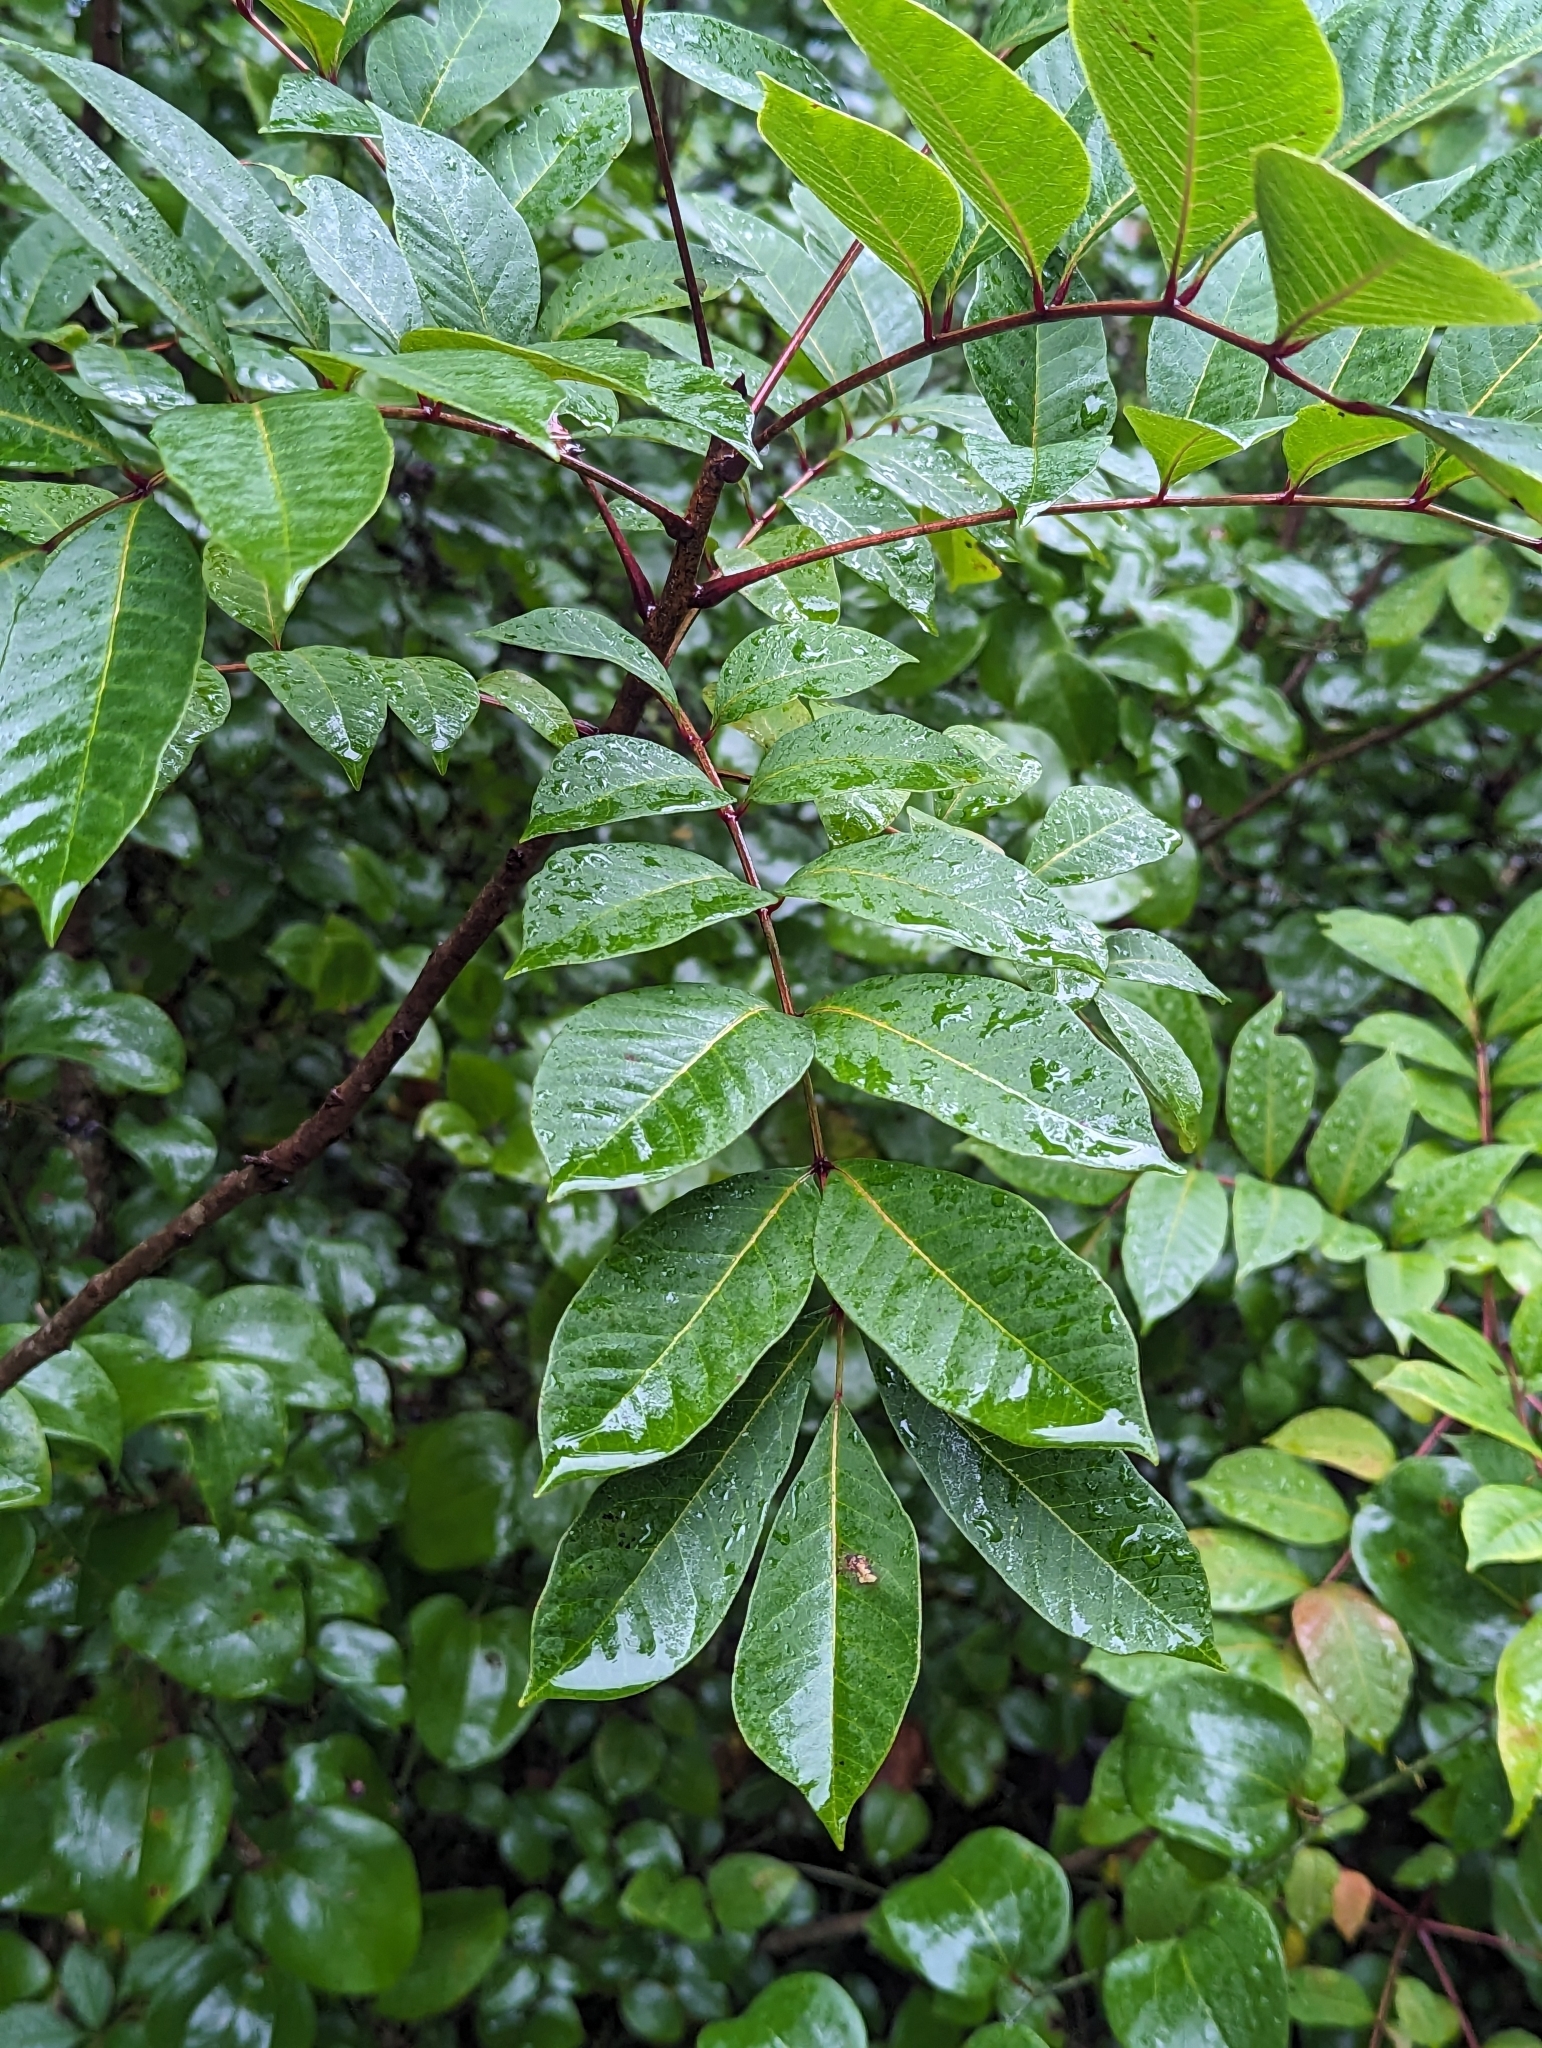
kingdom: Plantae
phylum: Tracheophyta
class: Magnoliopsida
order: Sapindales
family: Anacardiaceae
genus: Toxicodendron
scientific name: Toxicodendron vernix
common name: Poison sumac
